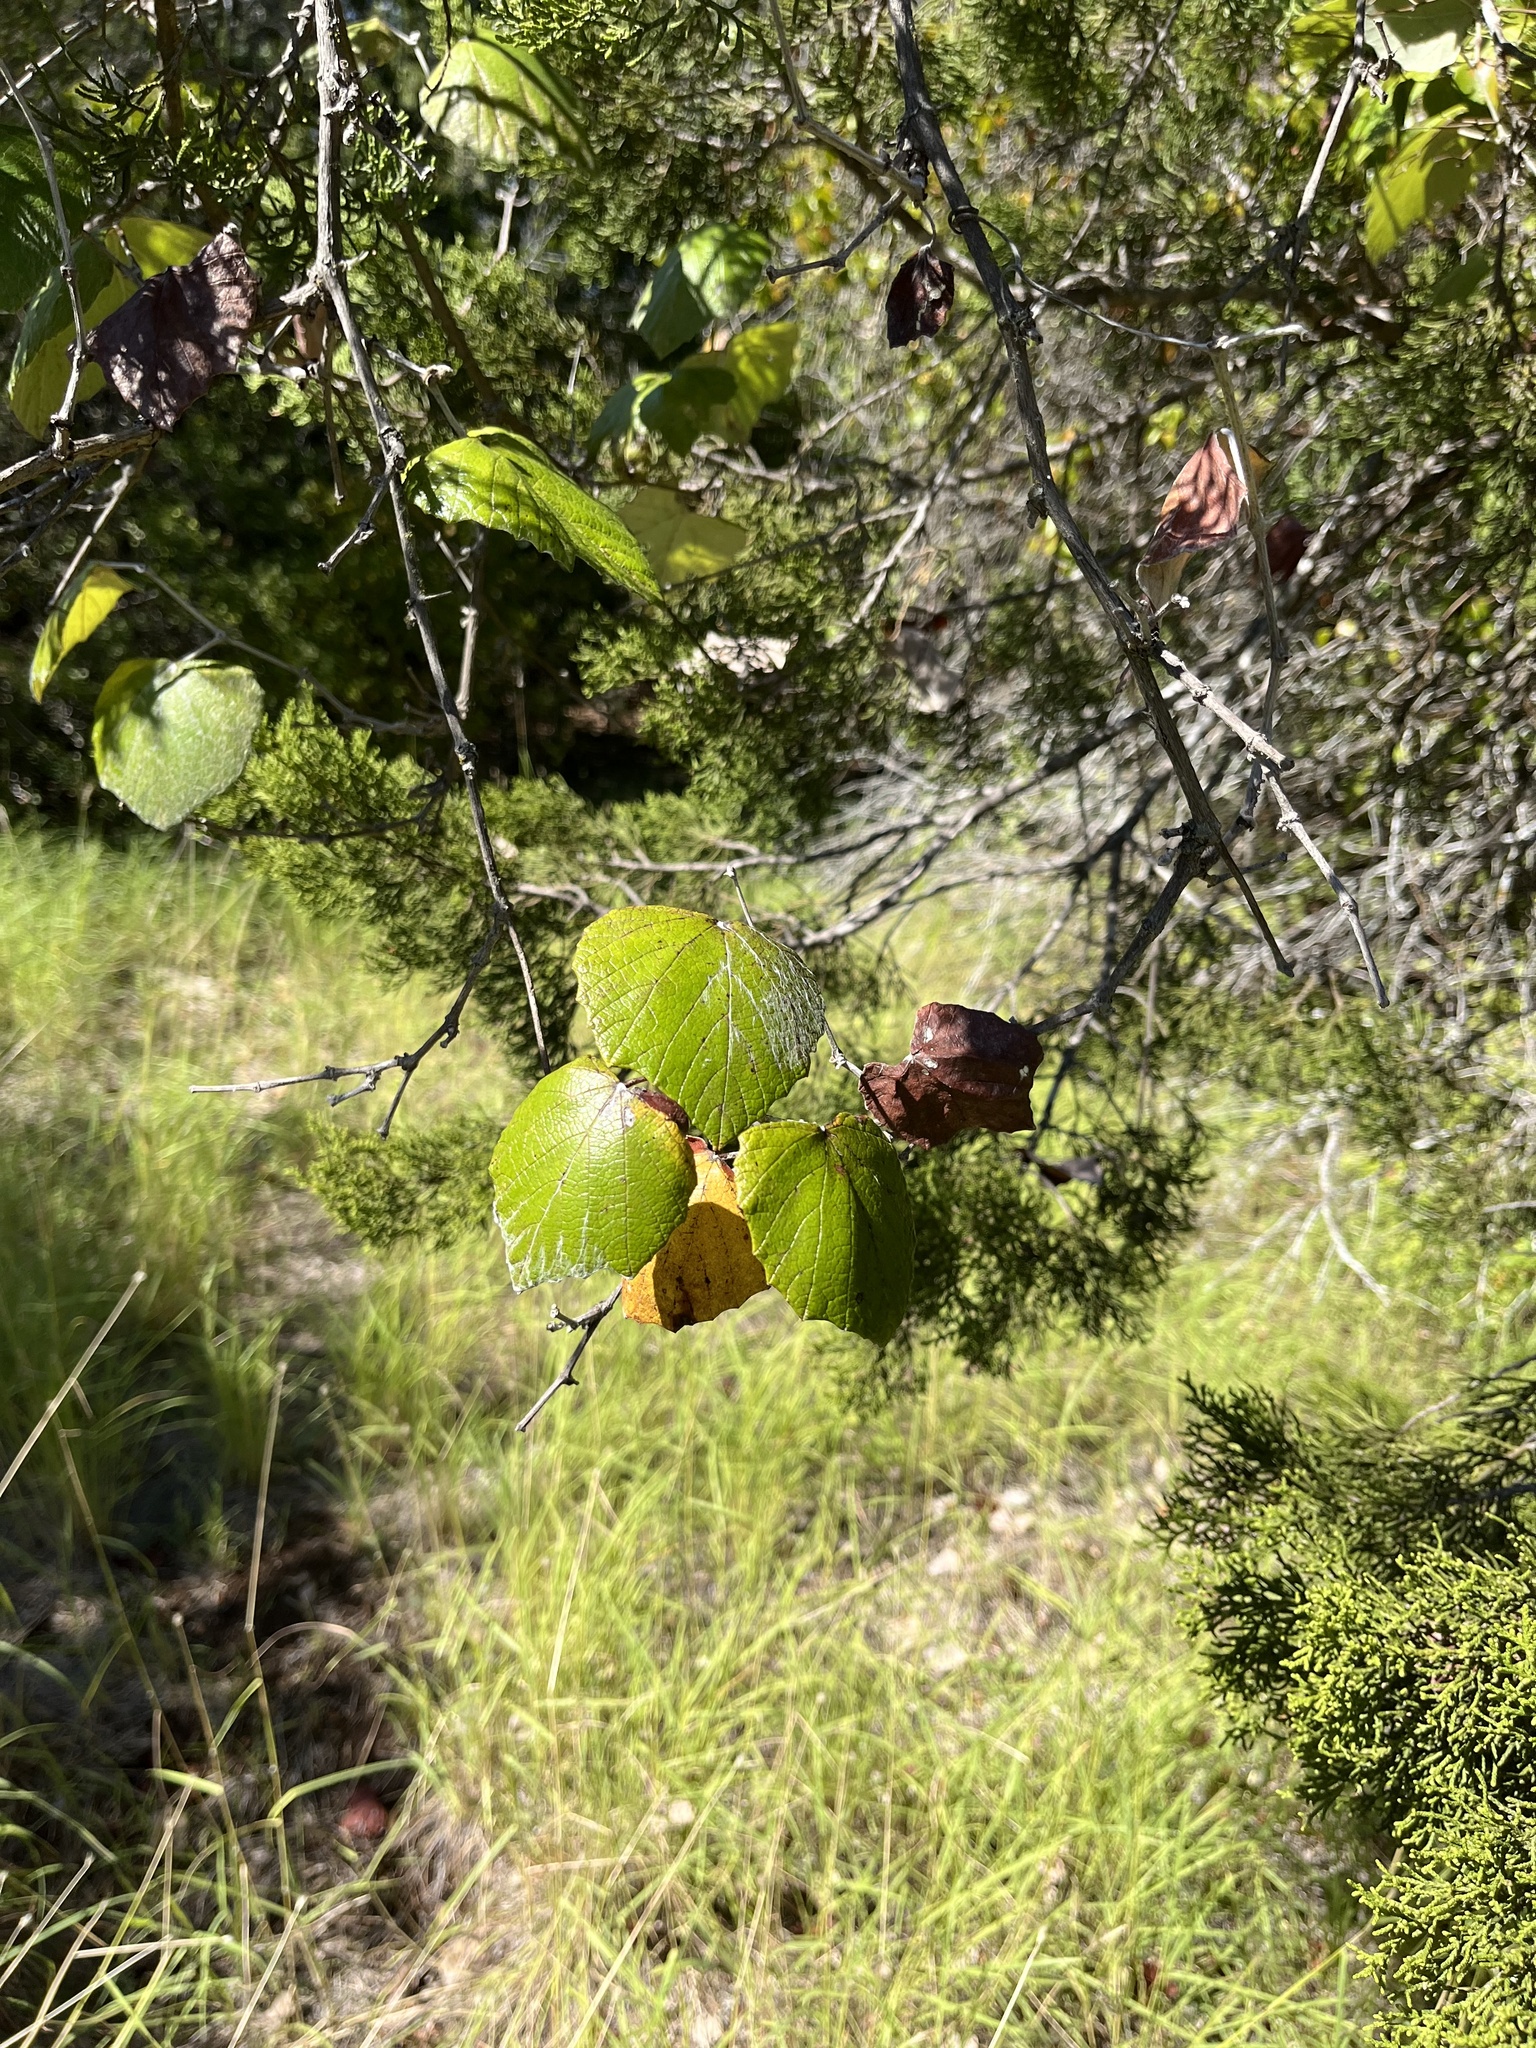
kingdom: Plantae
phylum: Tracheophyta
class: Magnoliopsida
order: Vitales
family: Vitaceae
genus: Vitis
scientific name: Vitis mustangensis
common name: Mustang grape
